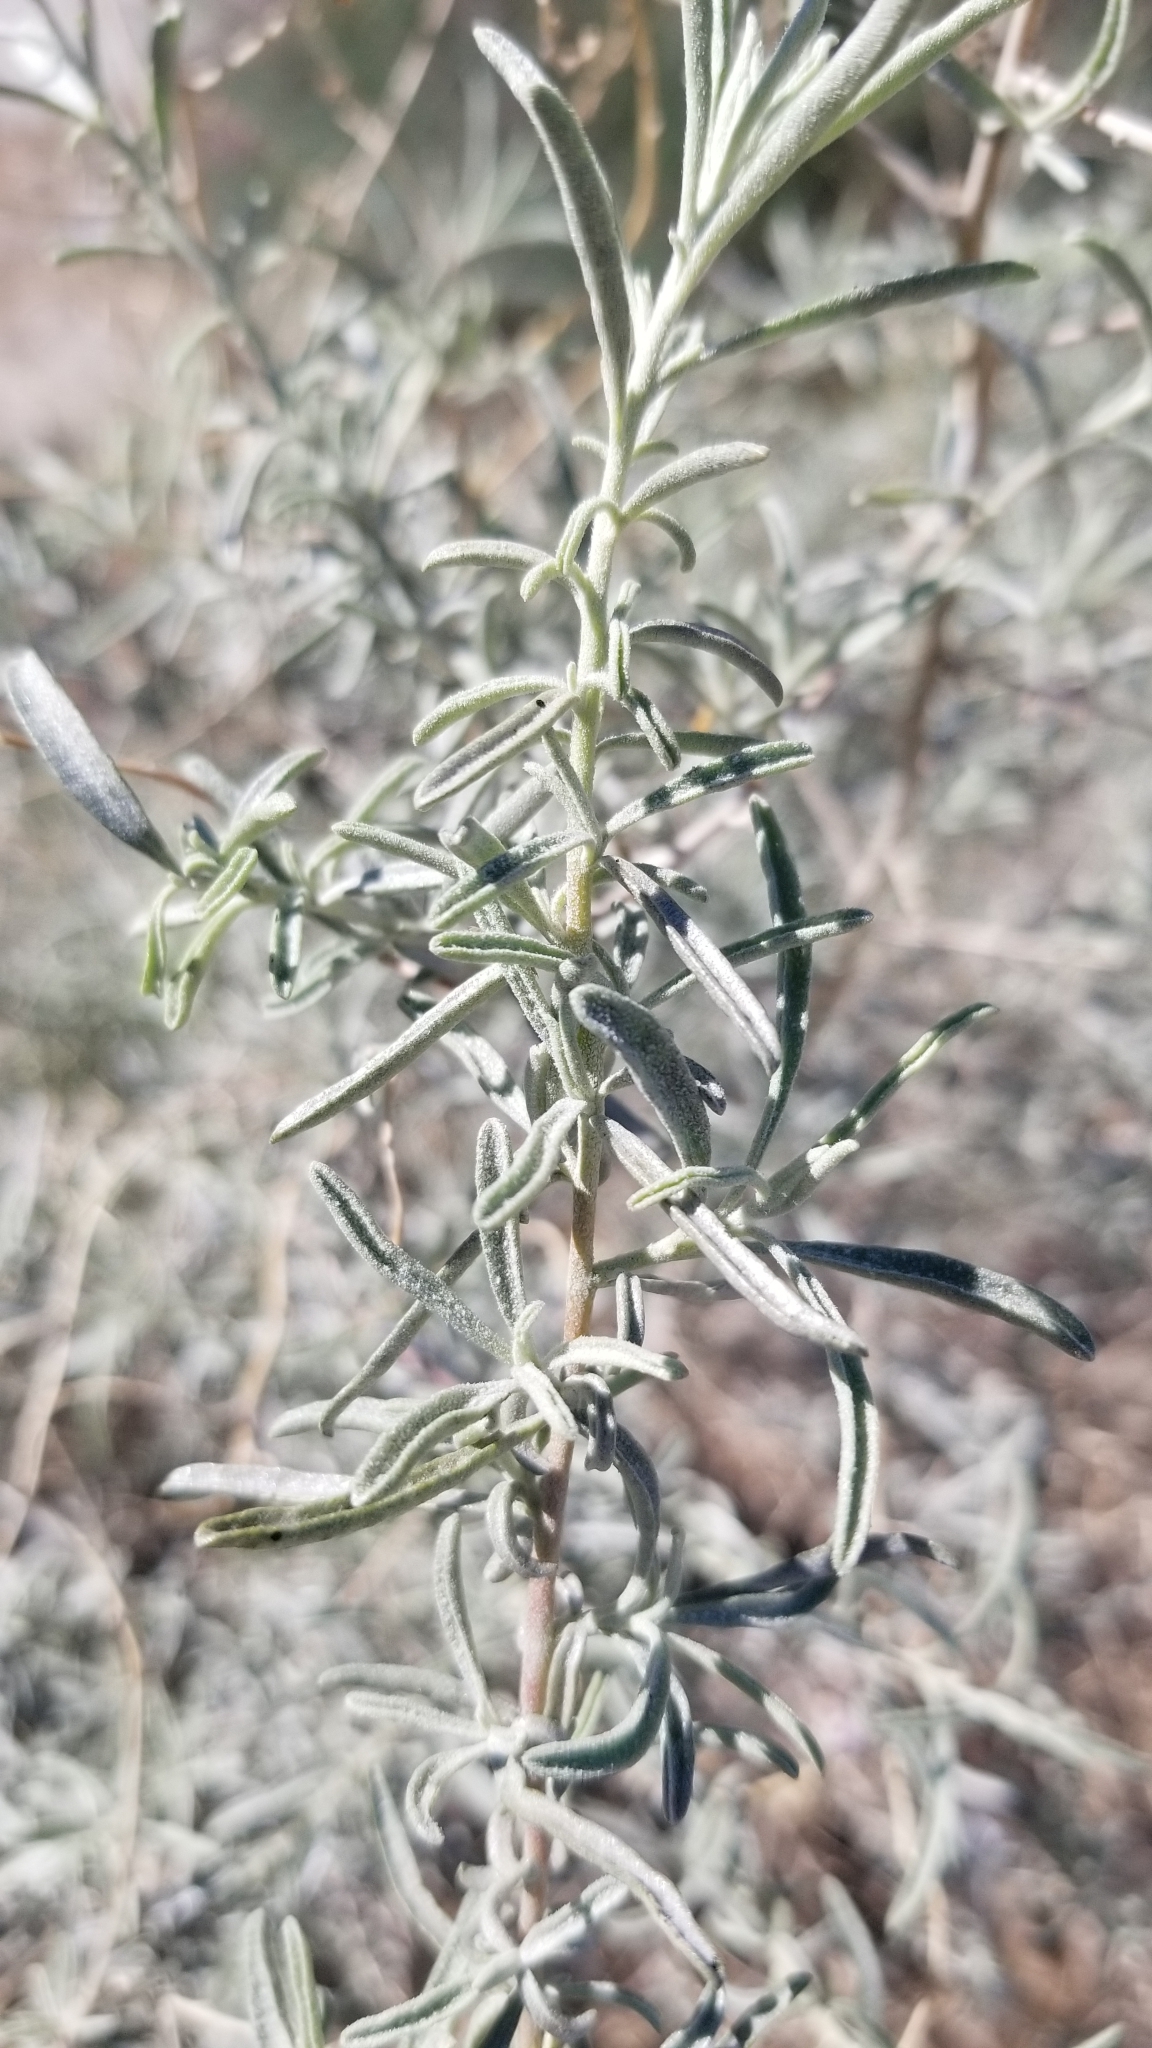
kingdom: Plantae
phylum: Tracheophyta
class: Magnoliopsida
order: Caryophyllales
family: Amaranthaceae
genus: Atriplex
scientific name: Atriplex canescens
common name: Four-wing saltbush
